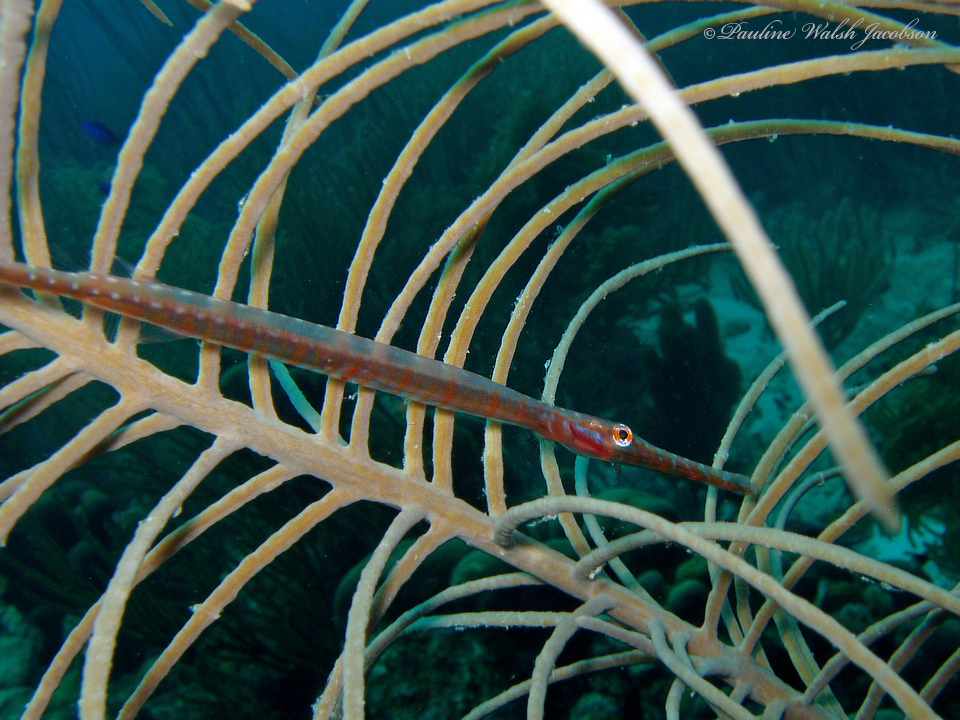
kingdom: Animalia
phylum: Chordata
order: Syngnathiformes
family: Aulostomidae
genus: Aulostomus
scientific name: Aulostomus maculatus
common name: West atlantic trumpetfish
